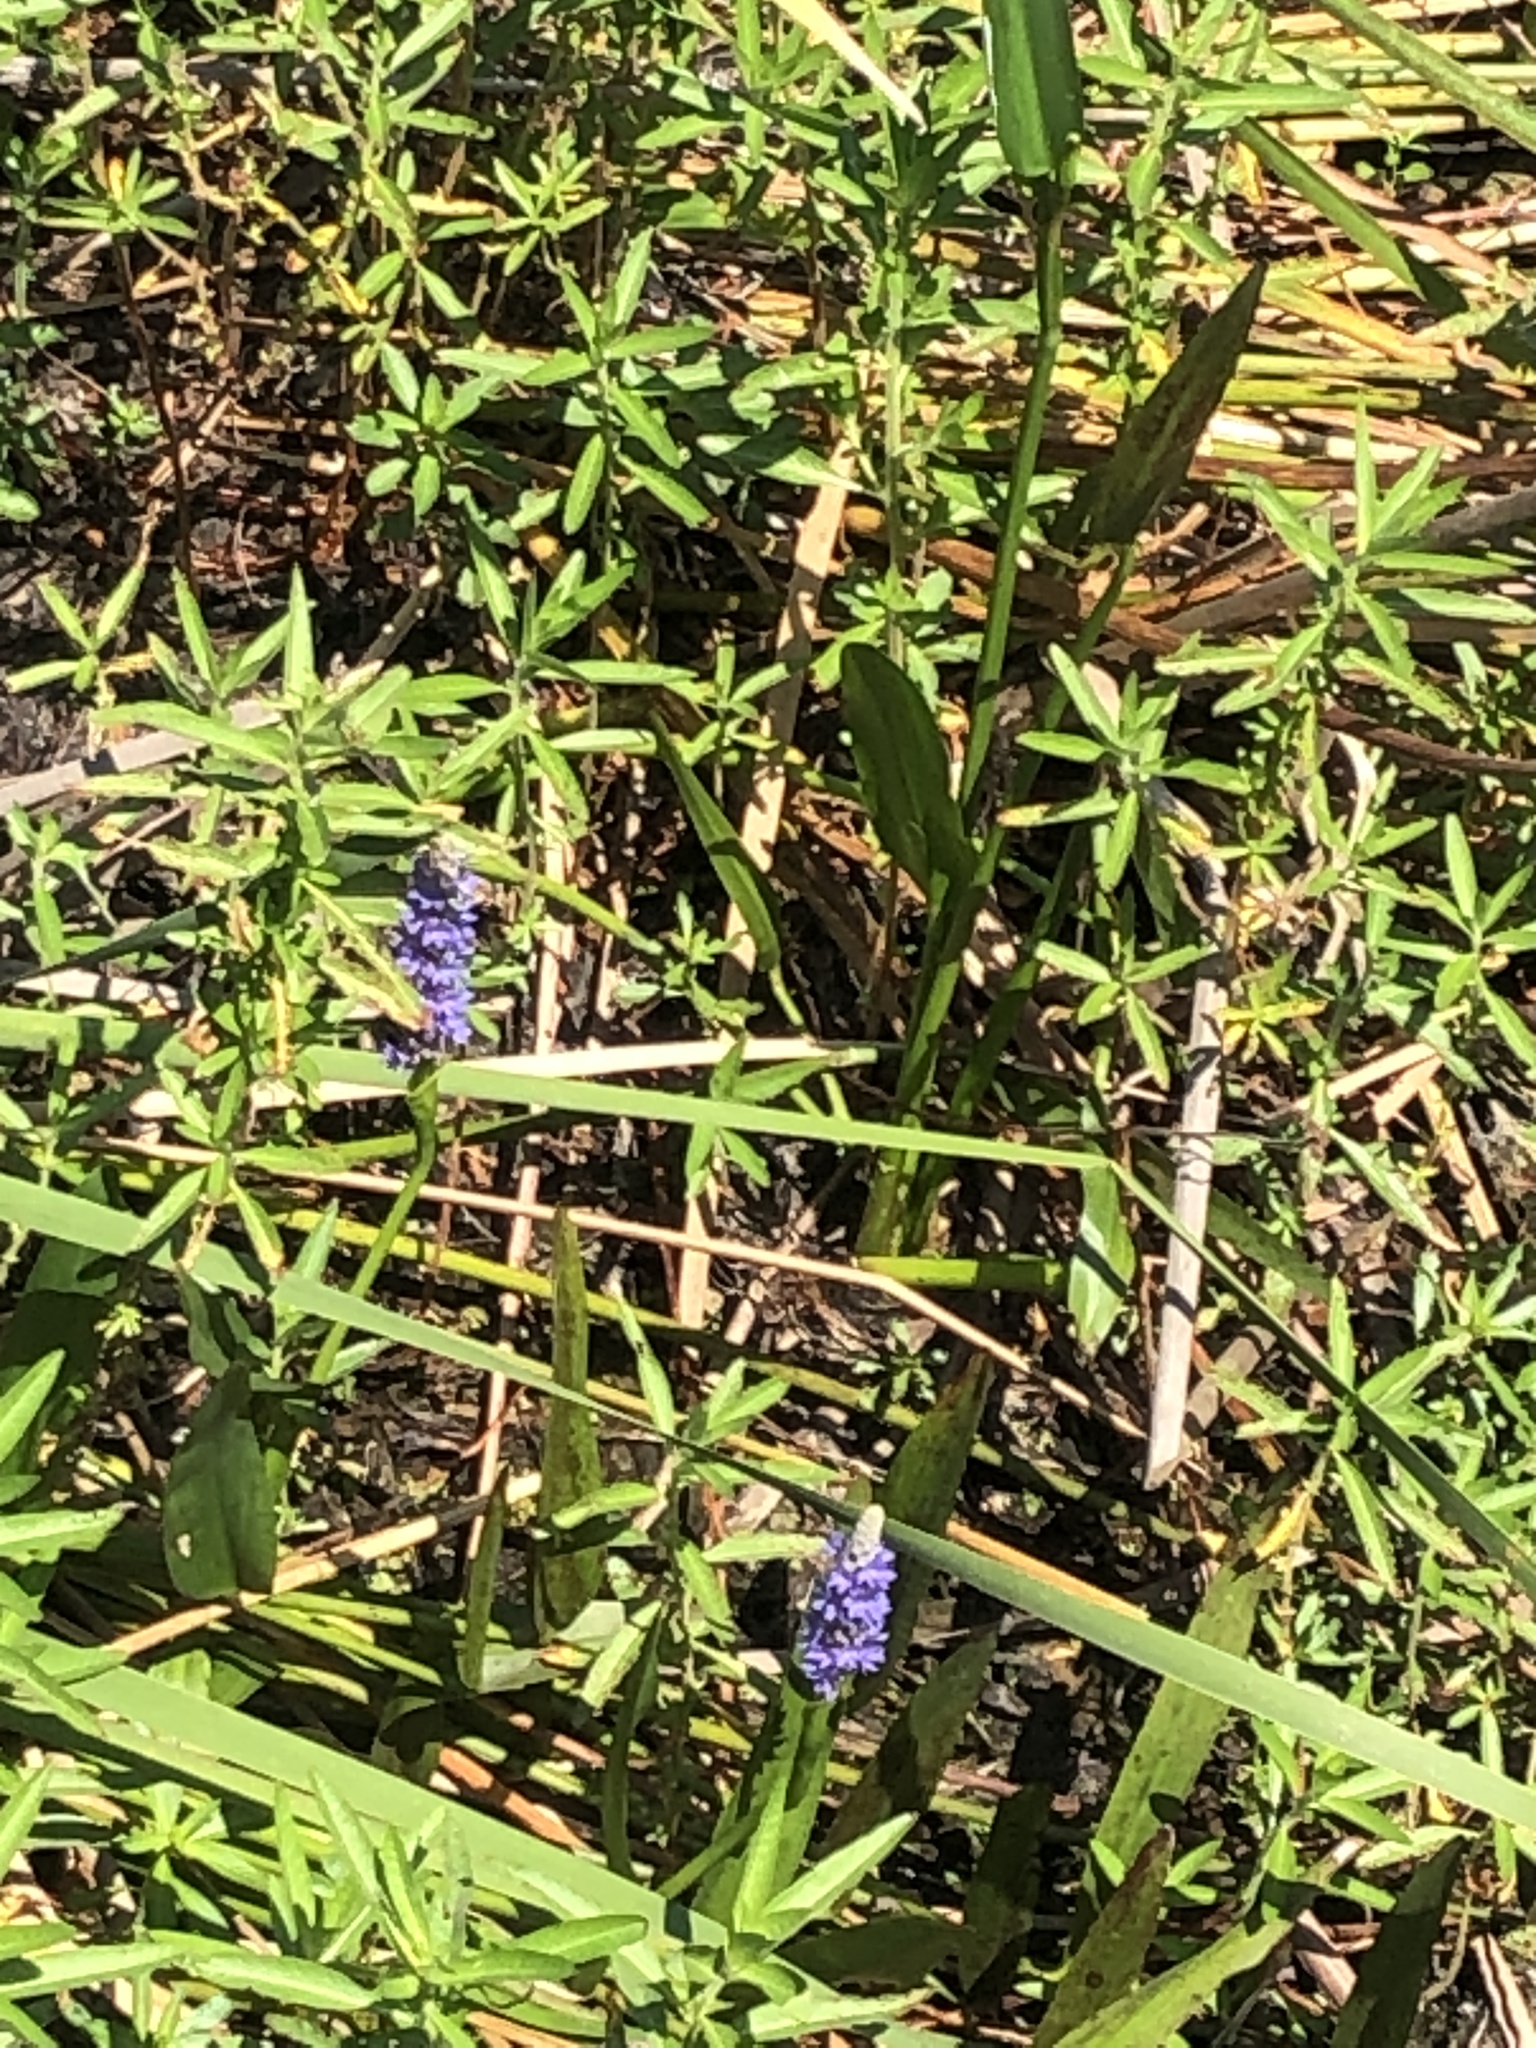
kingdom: Plantae
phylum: Tracheophyta
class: Liliopsida
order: Commelinales
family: Pontederiaceae
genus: Pontederia
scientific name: Pontederia cordata
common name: Pickerelweed
